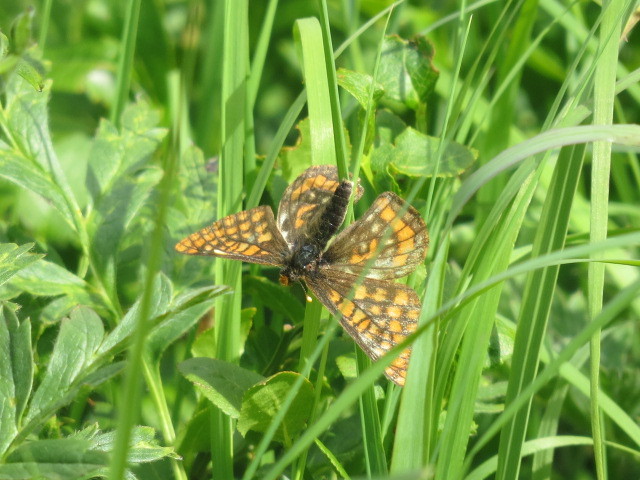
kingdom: Animalia
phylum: Arthropoda
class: Insecta
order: Lepidoptera
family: Nymphalidae
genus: Hypodryas
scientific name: Hypodryas intermedia
